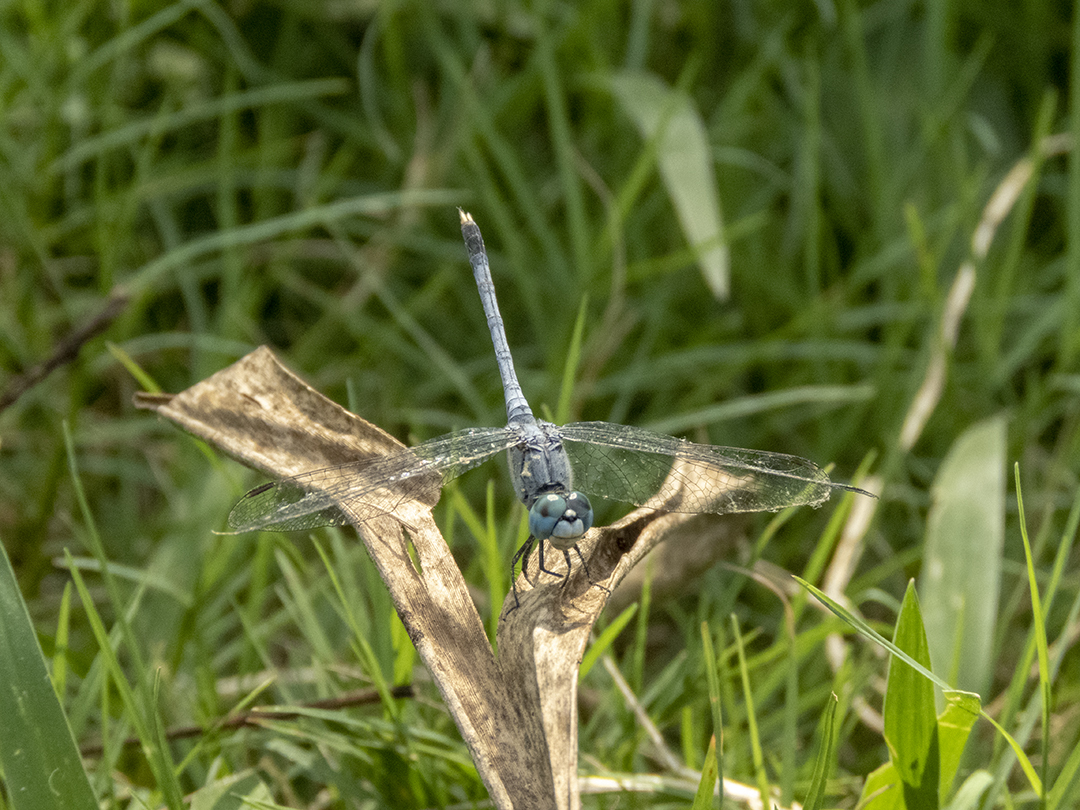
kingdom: Animalia
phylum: Arthropoda
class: Insecta
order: Odonata
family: Libellulidae
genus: Diplacodes
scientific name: Diplacodes trivialis
